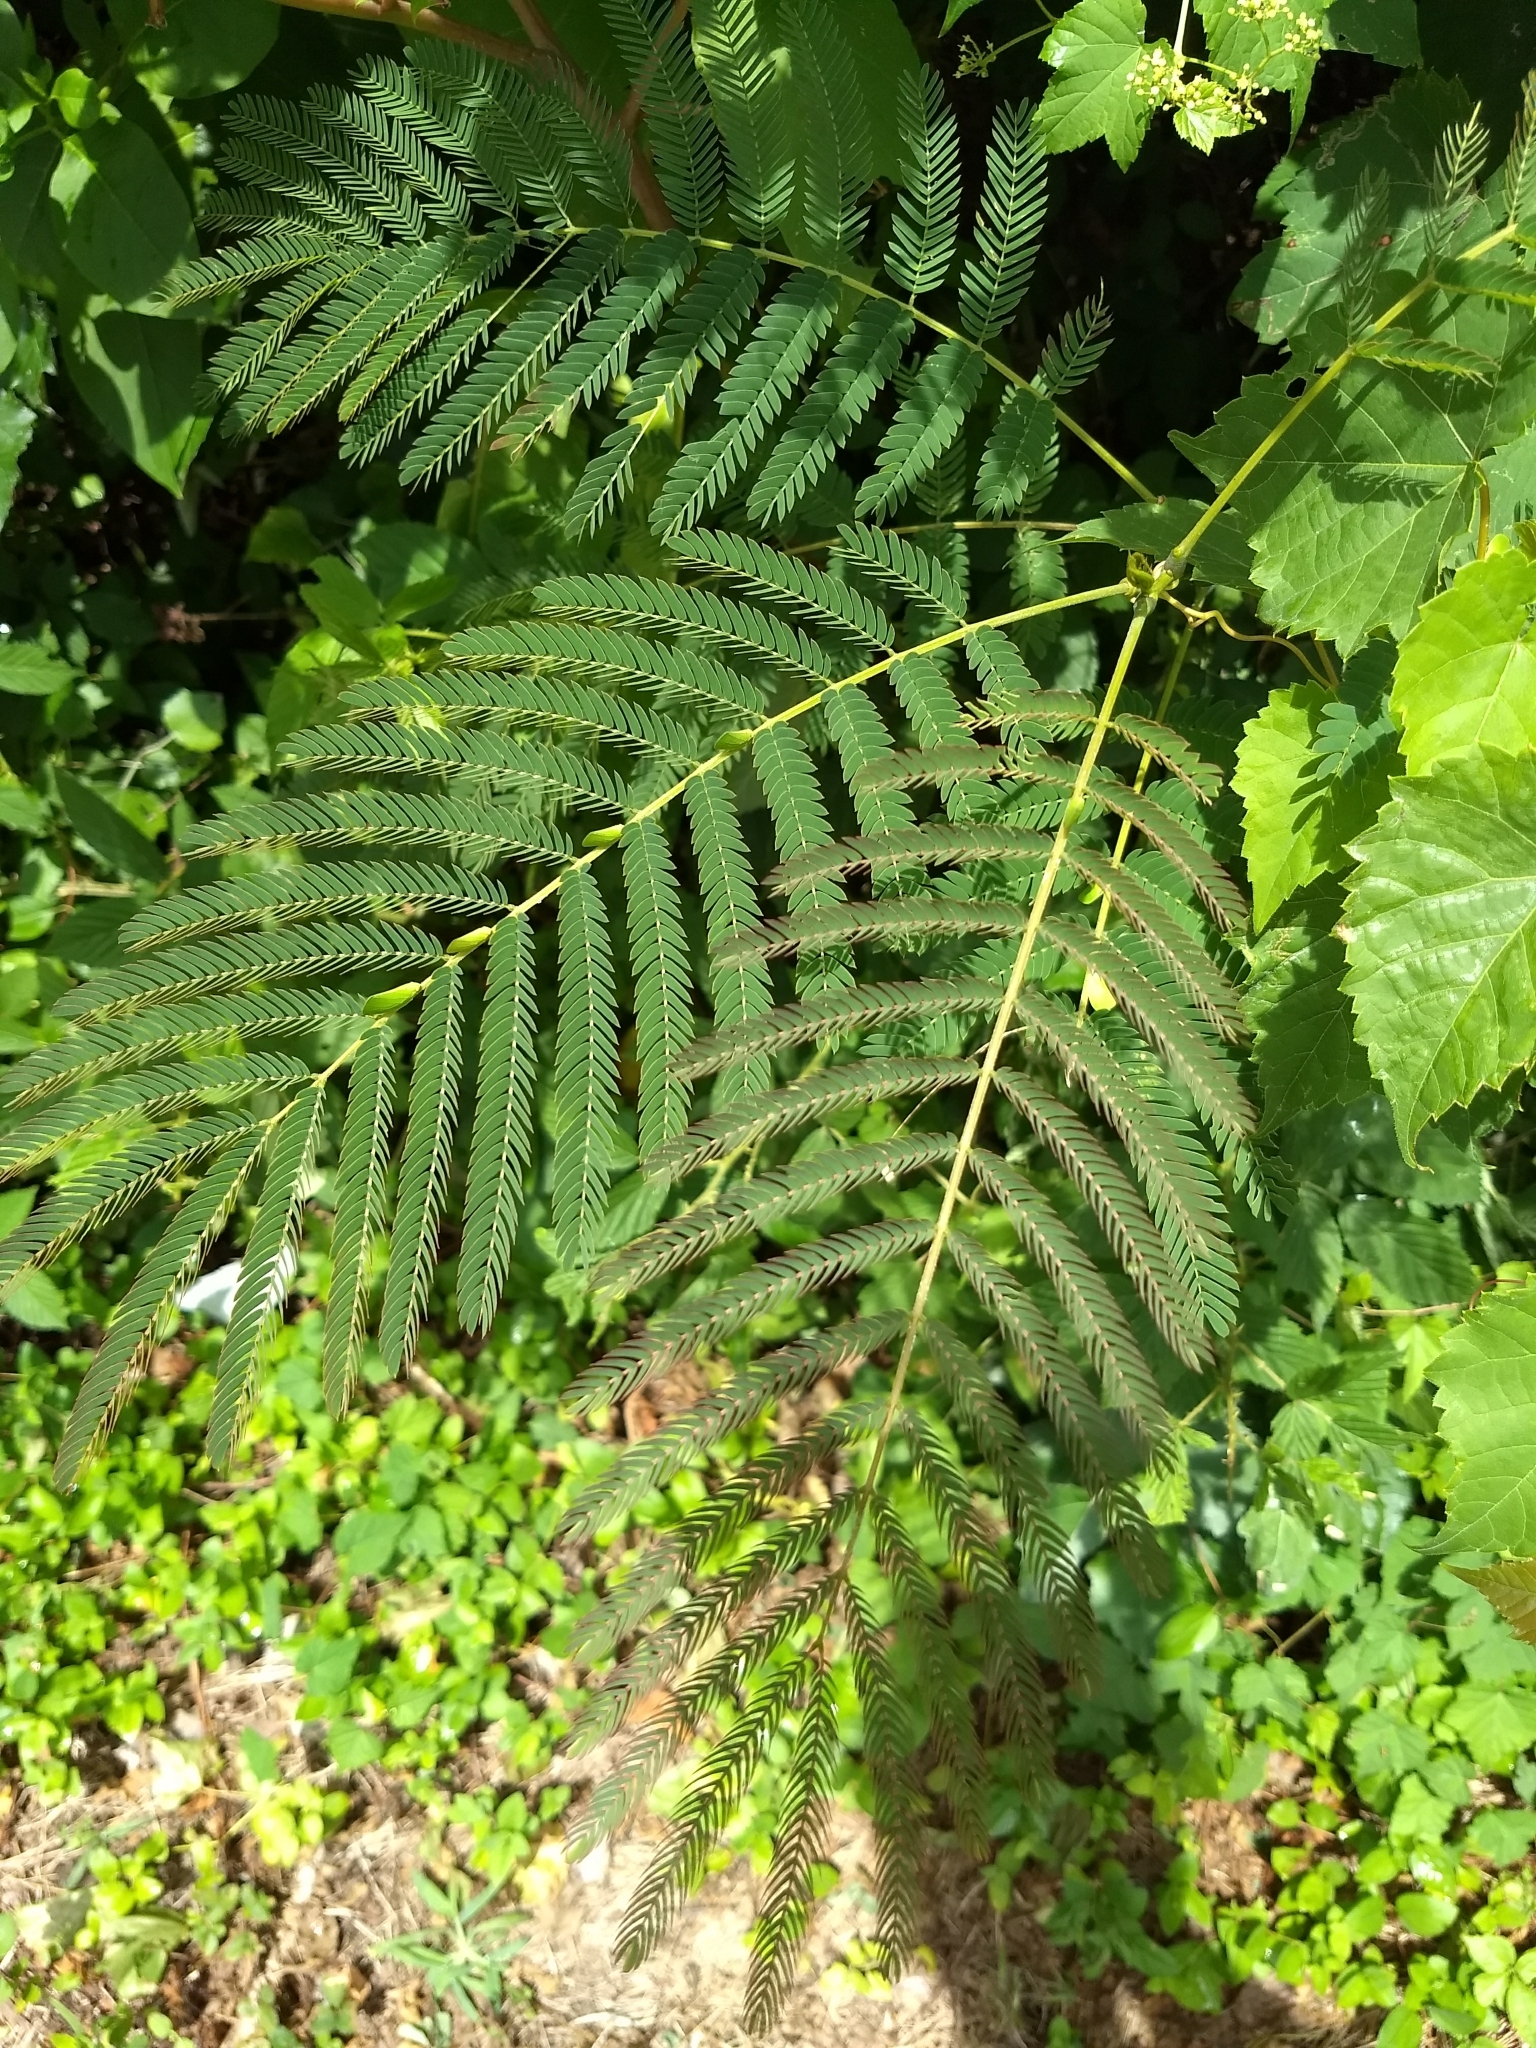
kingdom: Plantae
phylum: Tracheophyta
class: Magnoliopsida
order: Fabales
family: Fabaceae
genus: Albizia
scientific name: Albizia julibrissin
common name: Silktree
